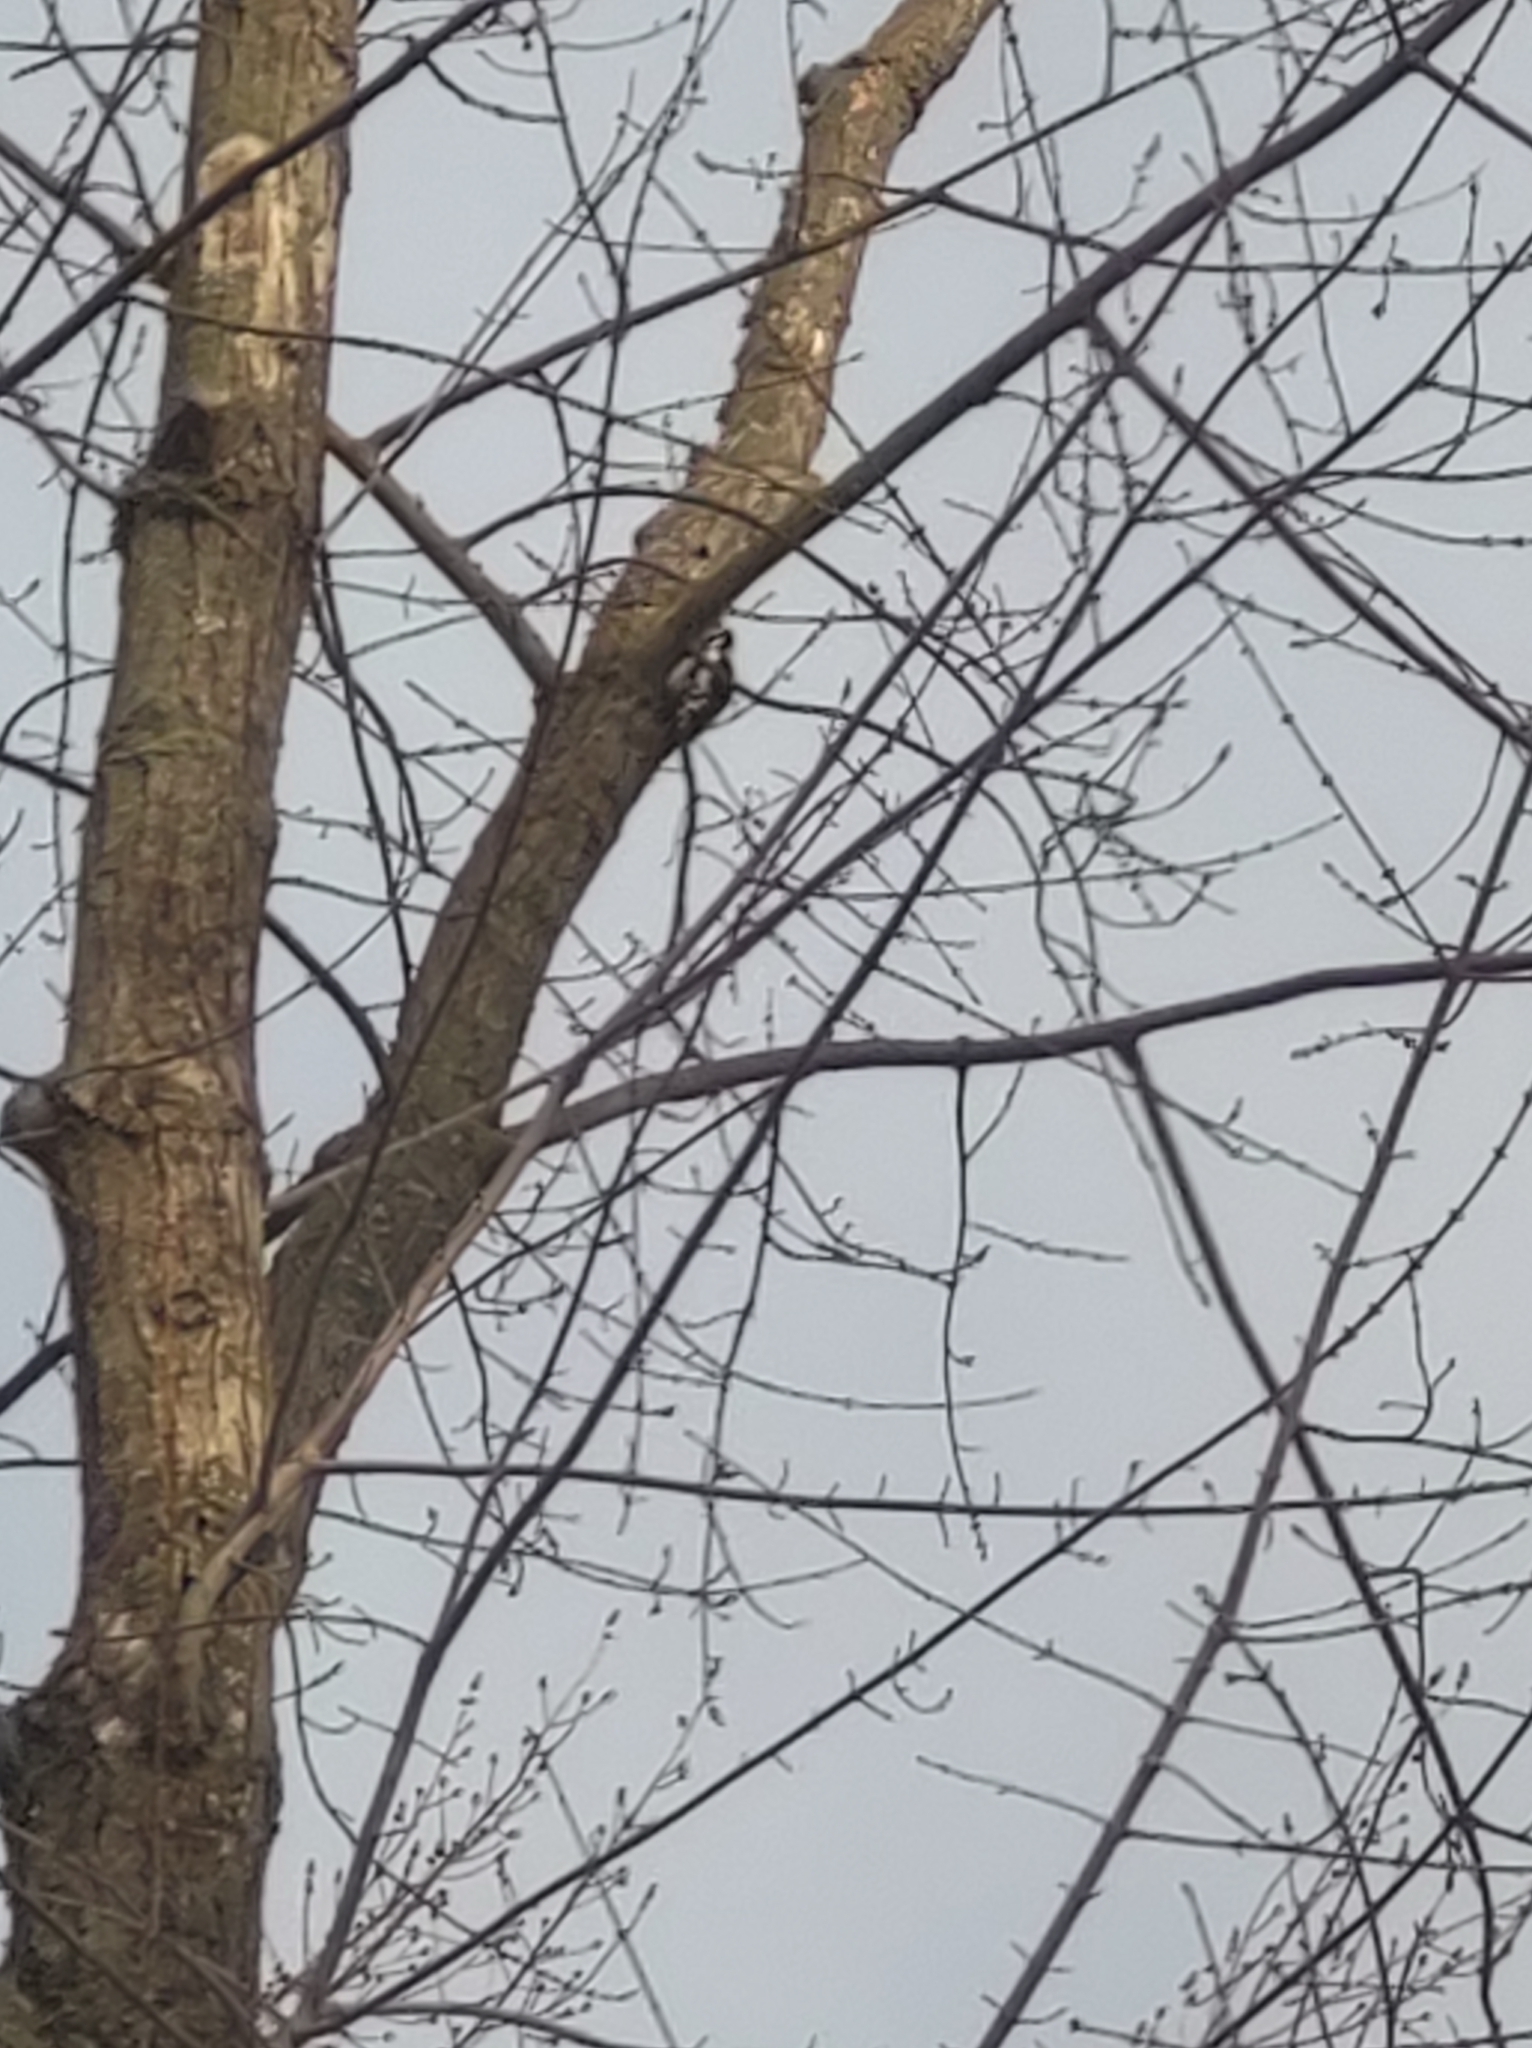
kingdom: Animalia
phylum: Chordata
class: Aves
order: Piciformes
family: Picidae
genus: Dendrocopos
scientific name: Dendrocopos major
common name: Great spotted woodpecker
